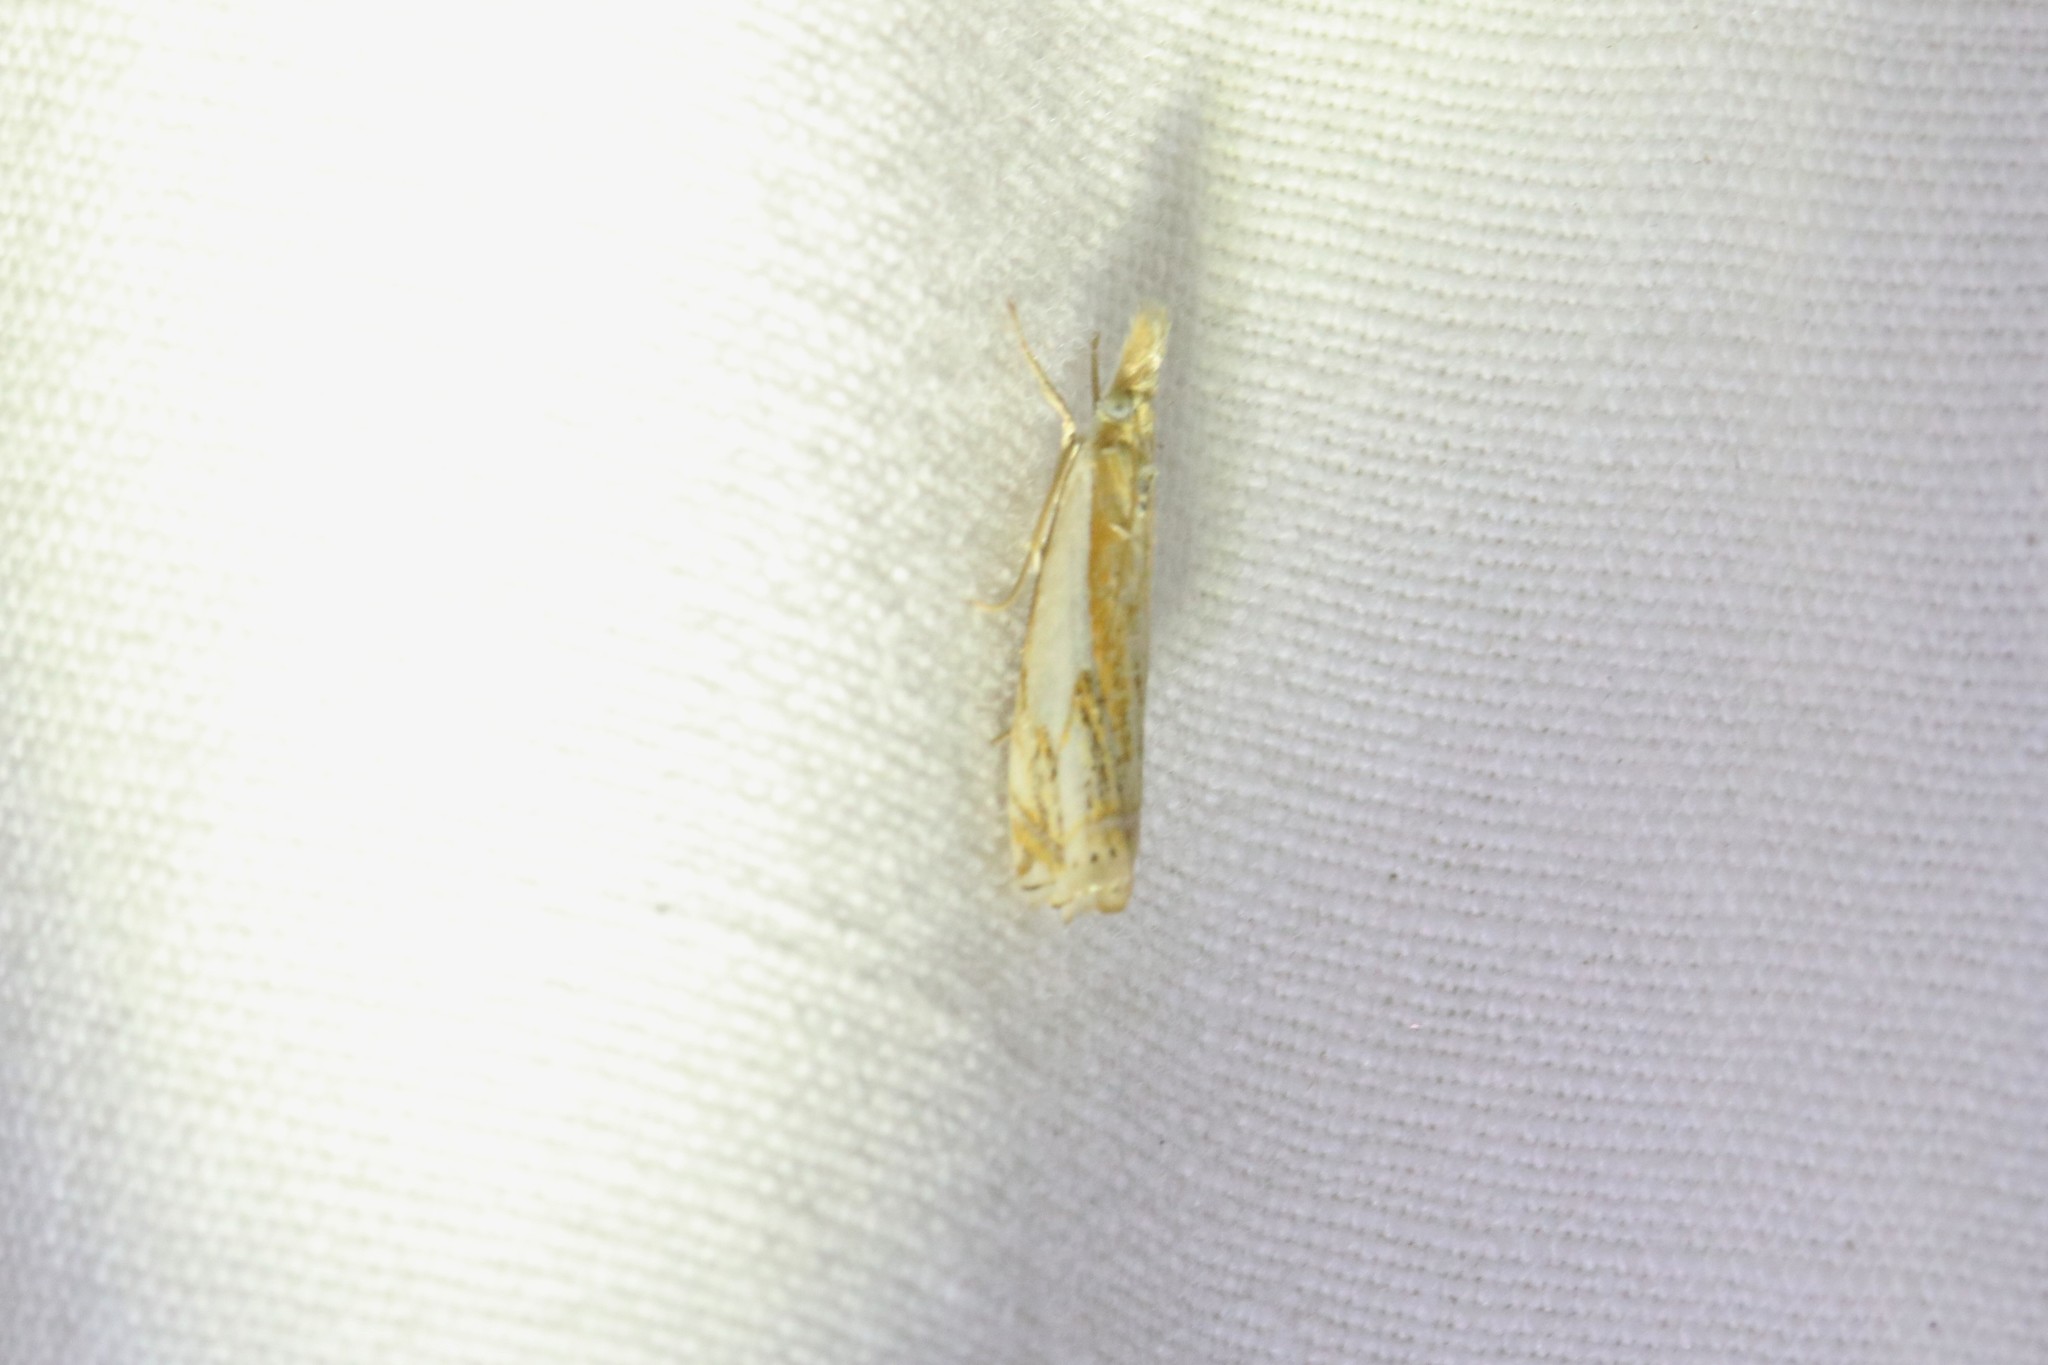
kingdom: Animalia
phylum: Arthropoda
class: Insecta
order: Lepidoptera
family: Crambidae
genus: Crambus
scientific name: Crambus agitatellus
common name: Double-banded grass-veneer
